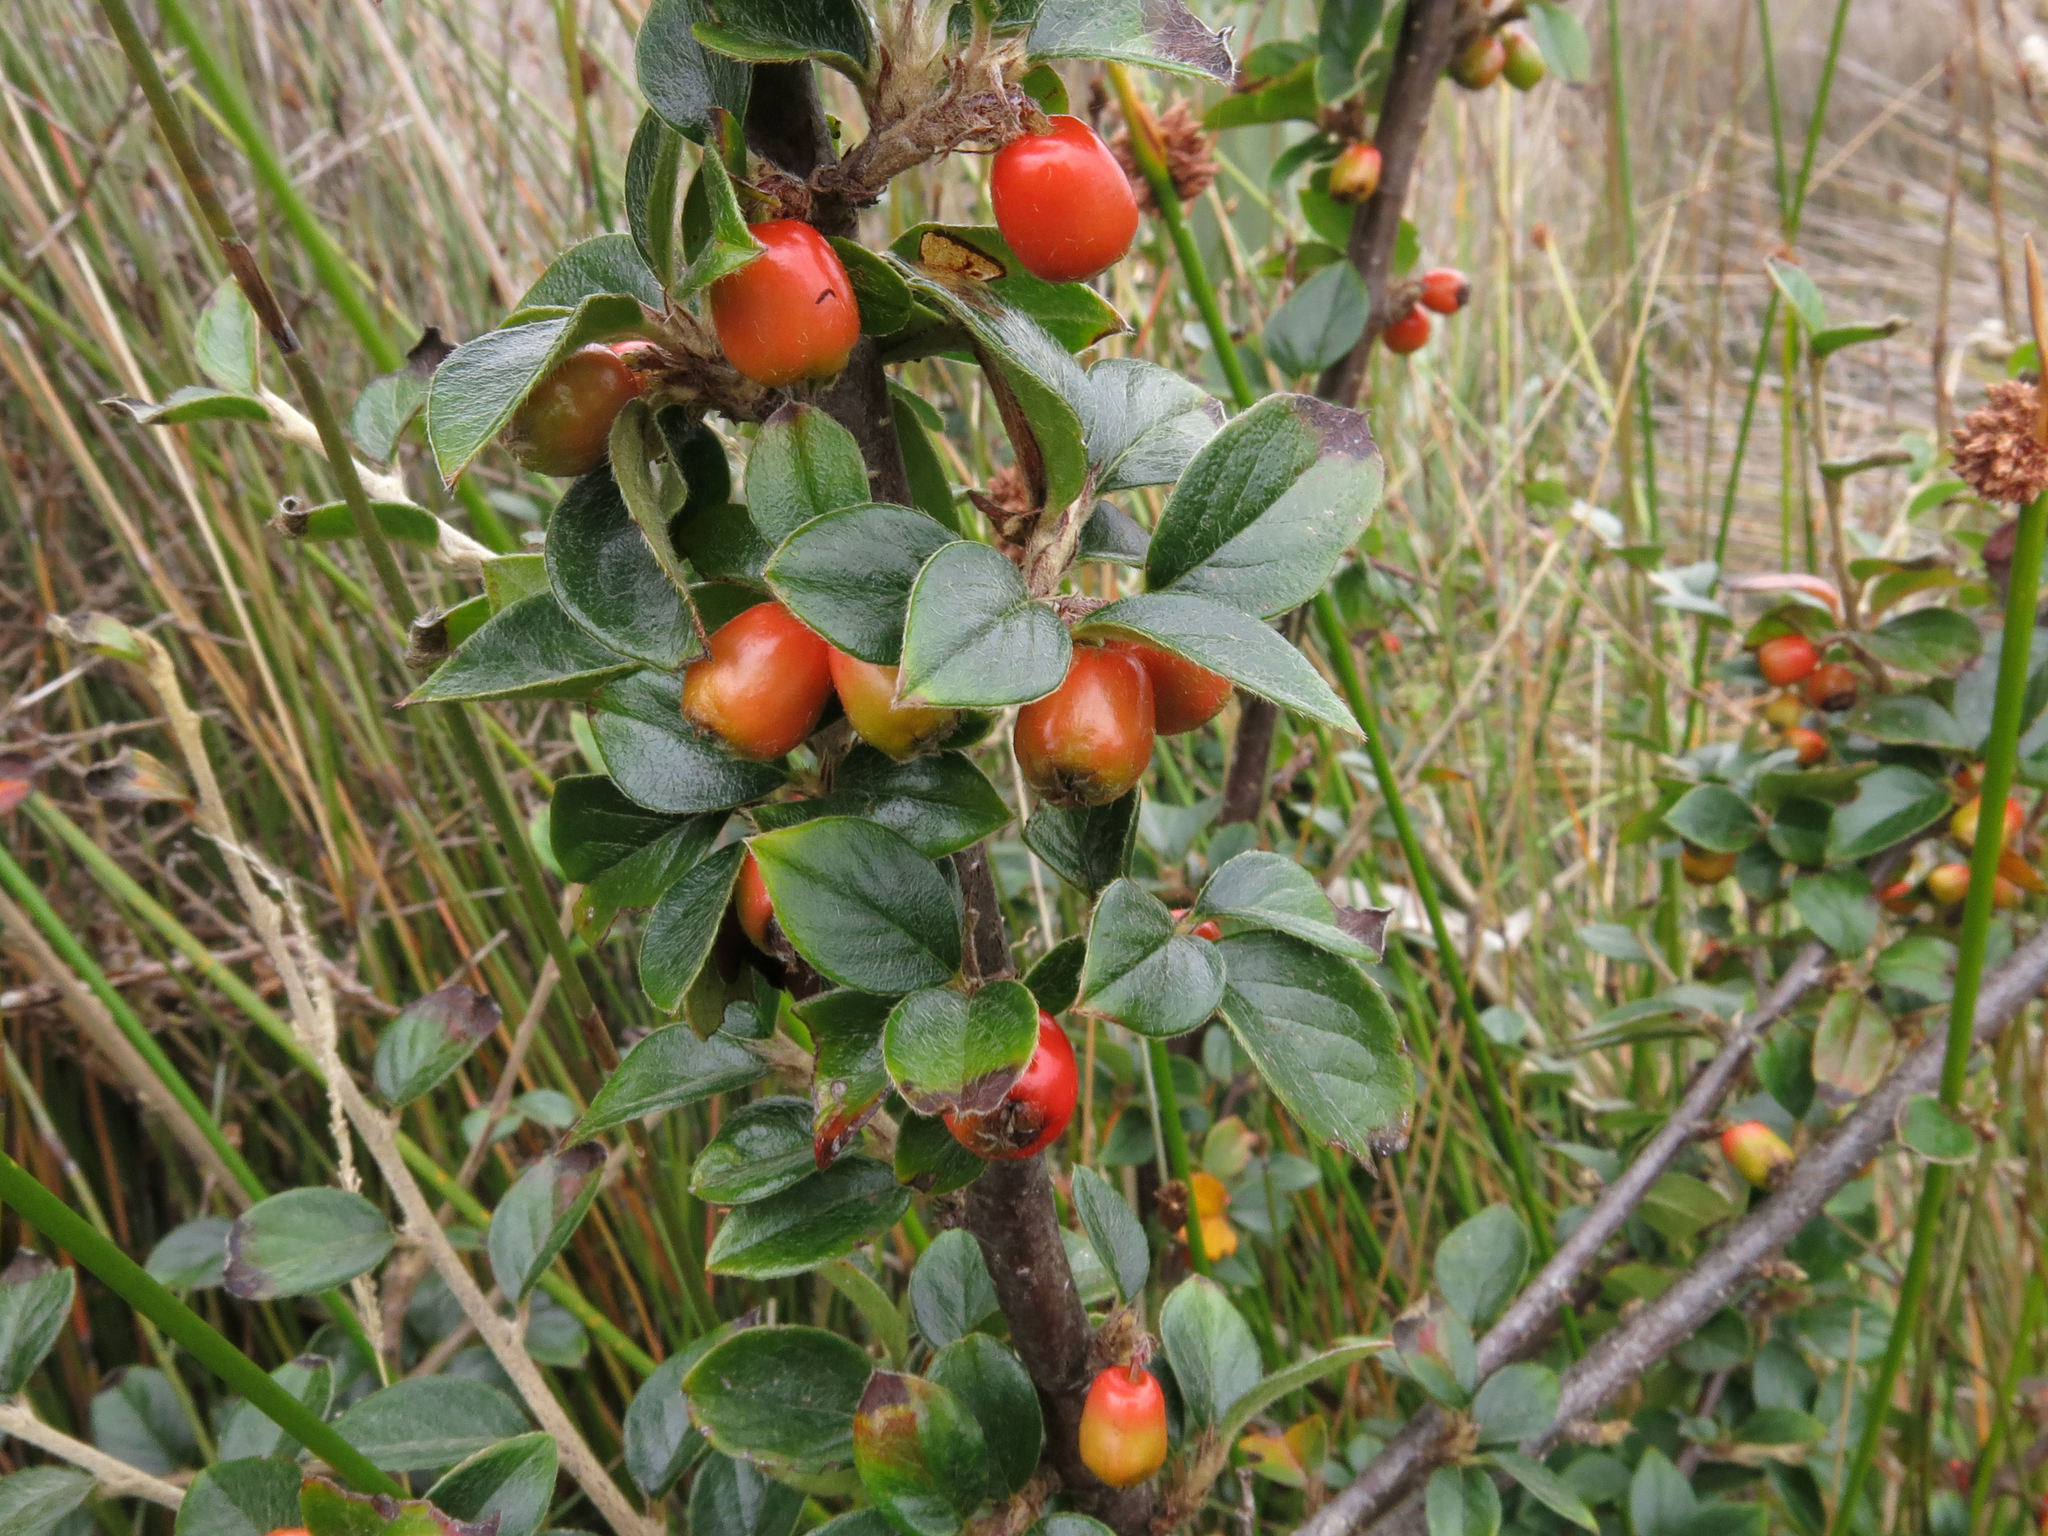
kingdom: Plantae
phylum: Tracheophyta
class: Magnoliopsida
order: Rosales
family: Rosaceae
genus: Cotoneaster
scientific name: Cotoneaster simonsii
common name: Himalayan cotoneaster
